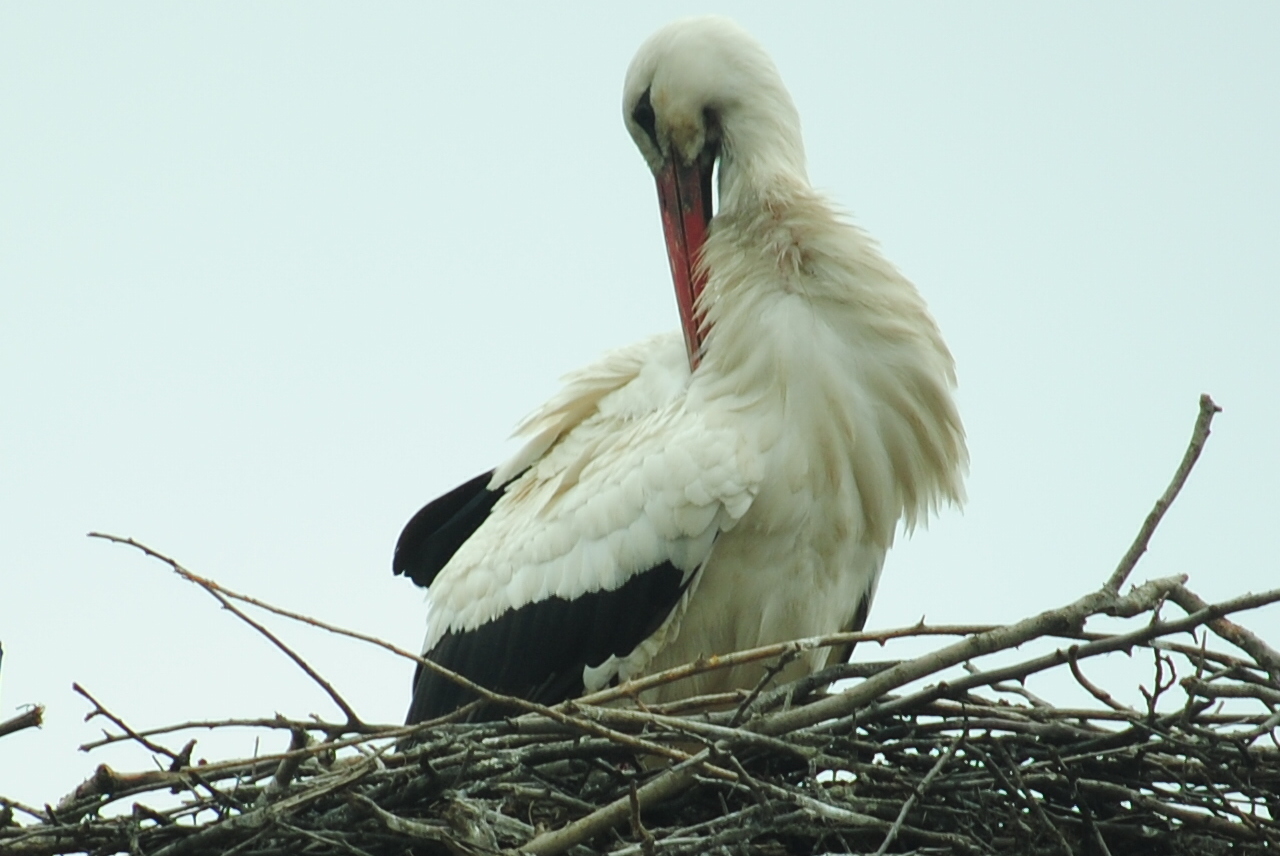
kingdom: Animalia
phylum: Chordata
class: Aves
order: Ciconiiformes
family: Ciconiidae
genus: Ciconia
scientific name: Ciconia ciconia
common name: White stork
